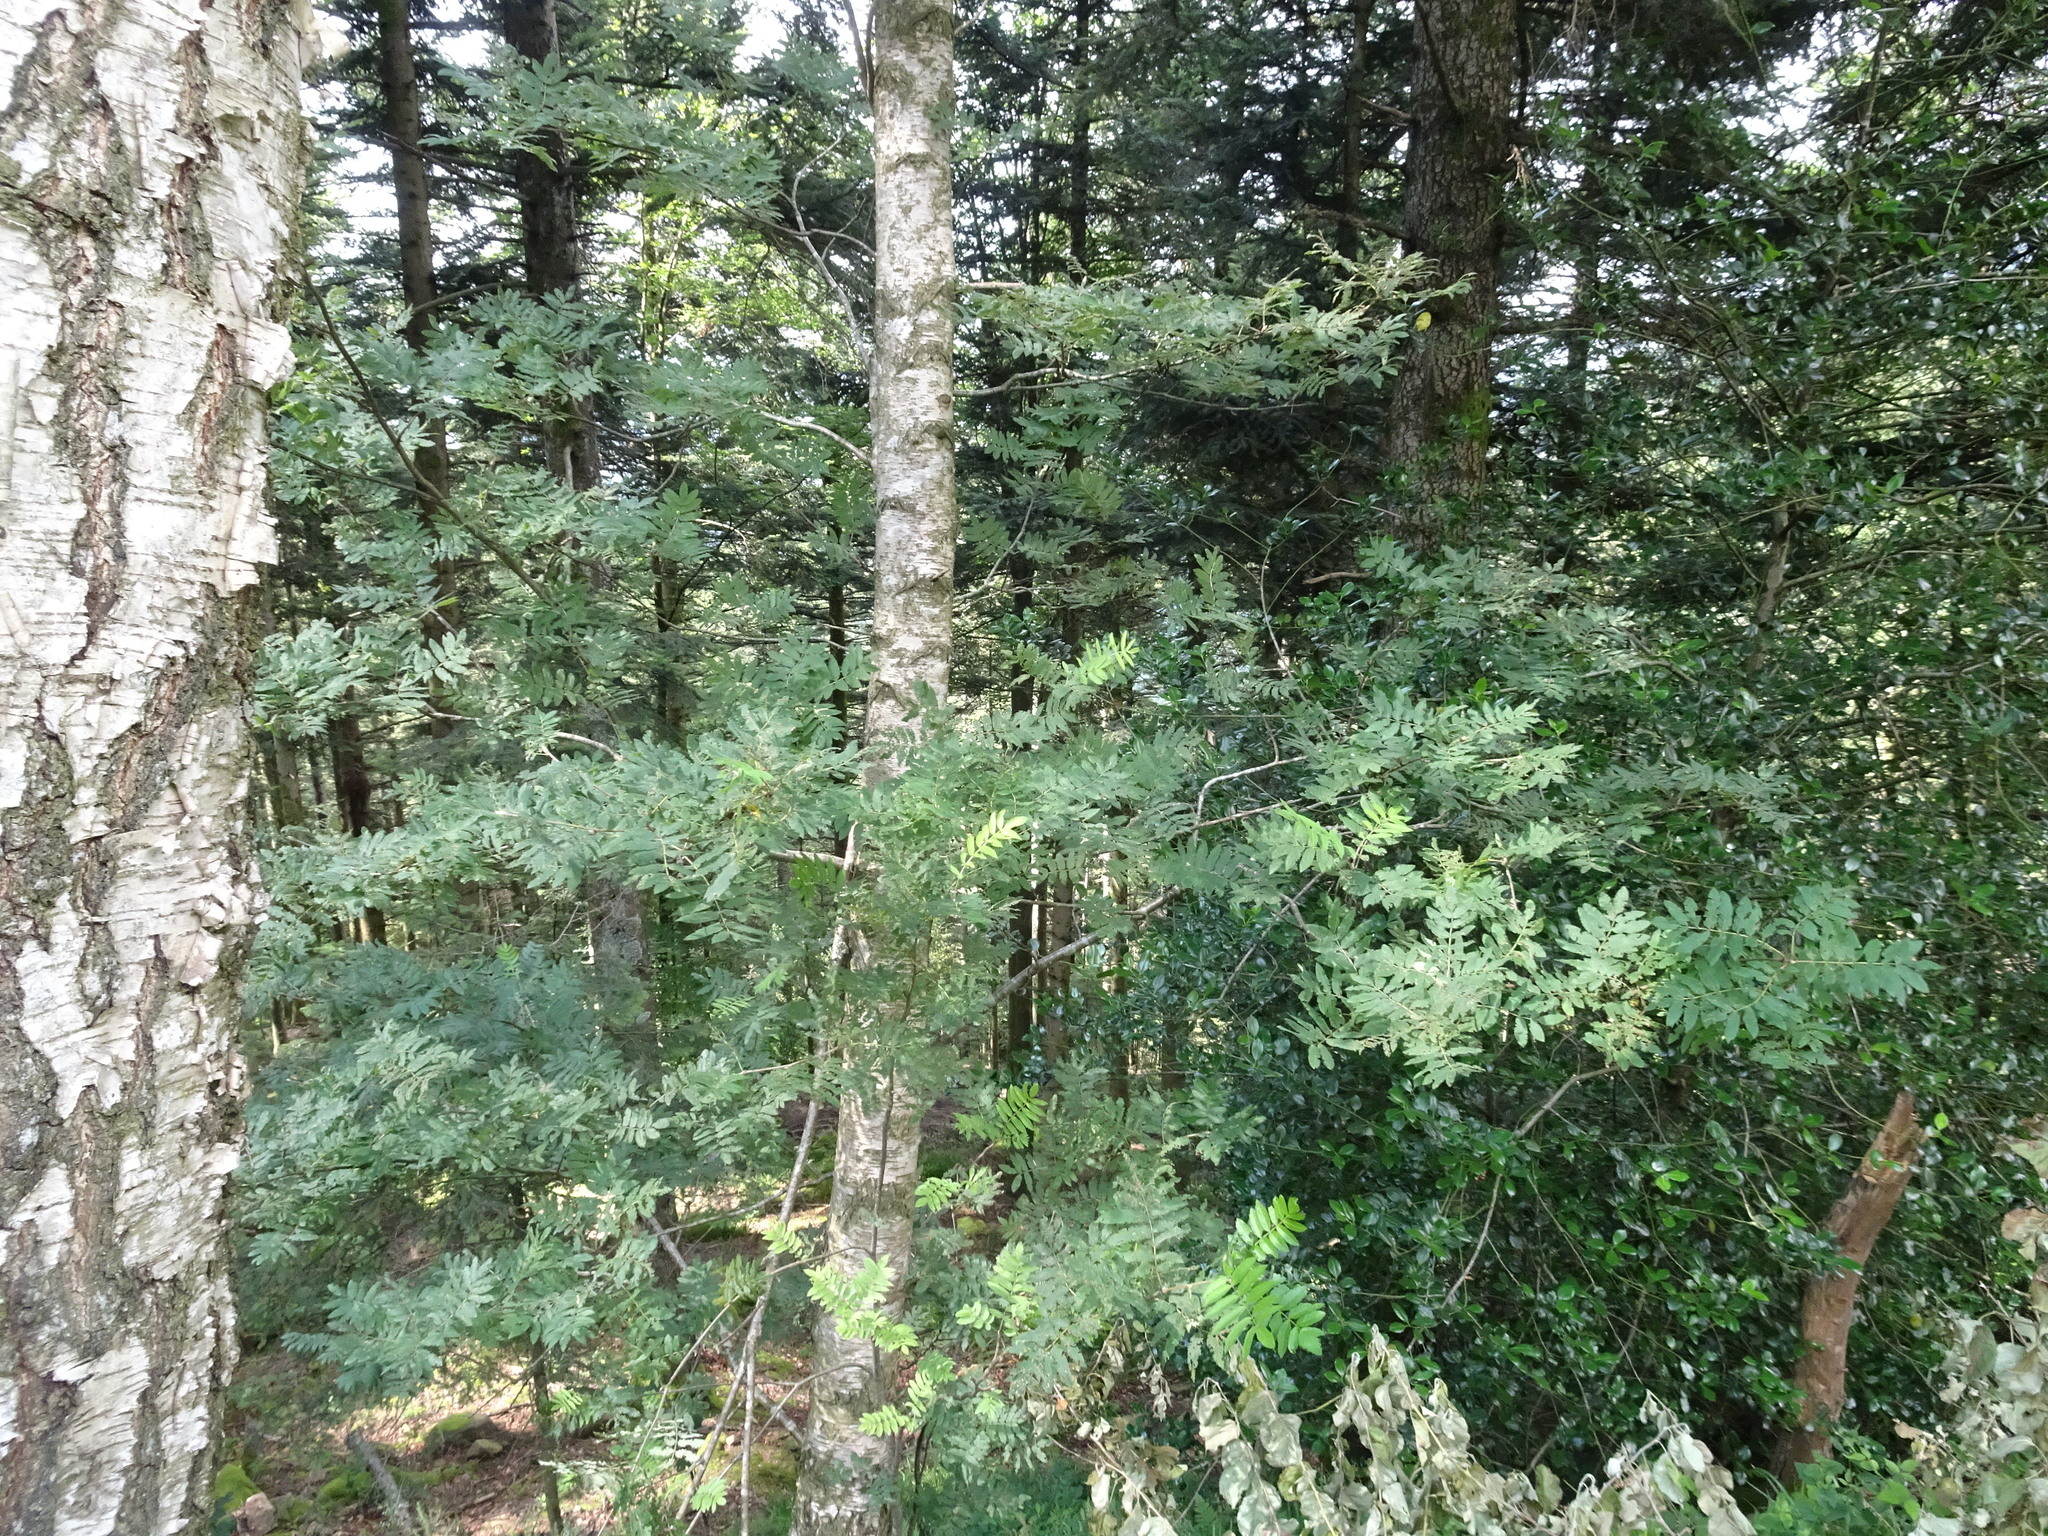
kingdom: Plantae
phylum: Tracheophyta
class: Magnoliopsida
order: Rosales
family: Rosaceae
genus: Sorbus
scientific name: Sorbus aucuparia
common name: Rowan
